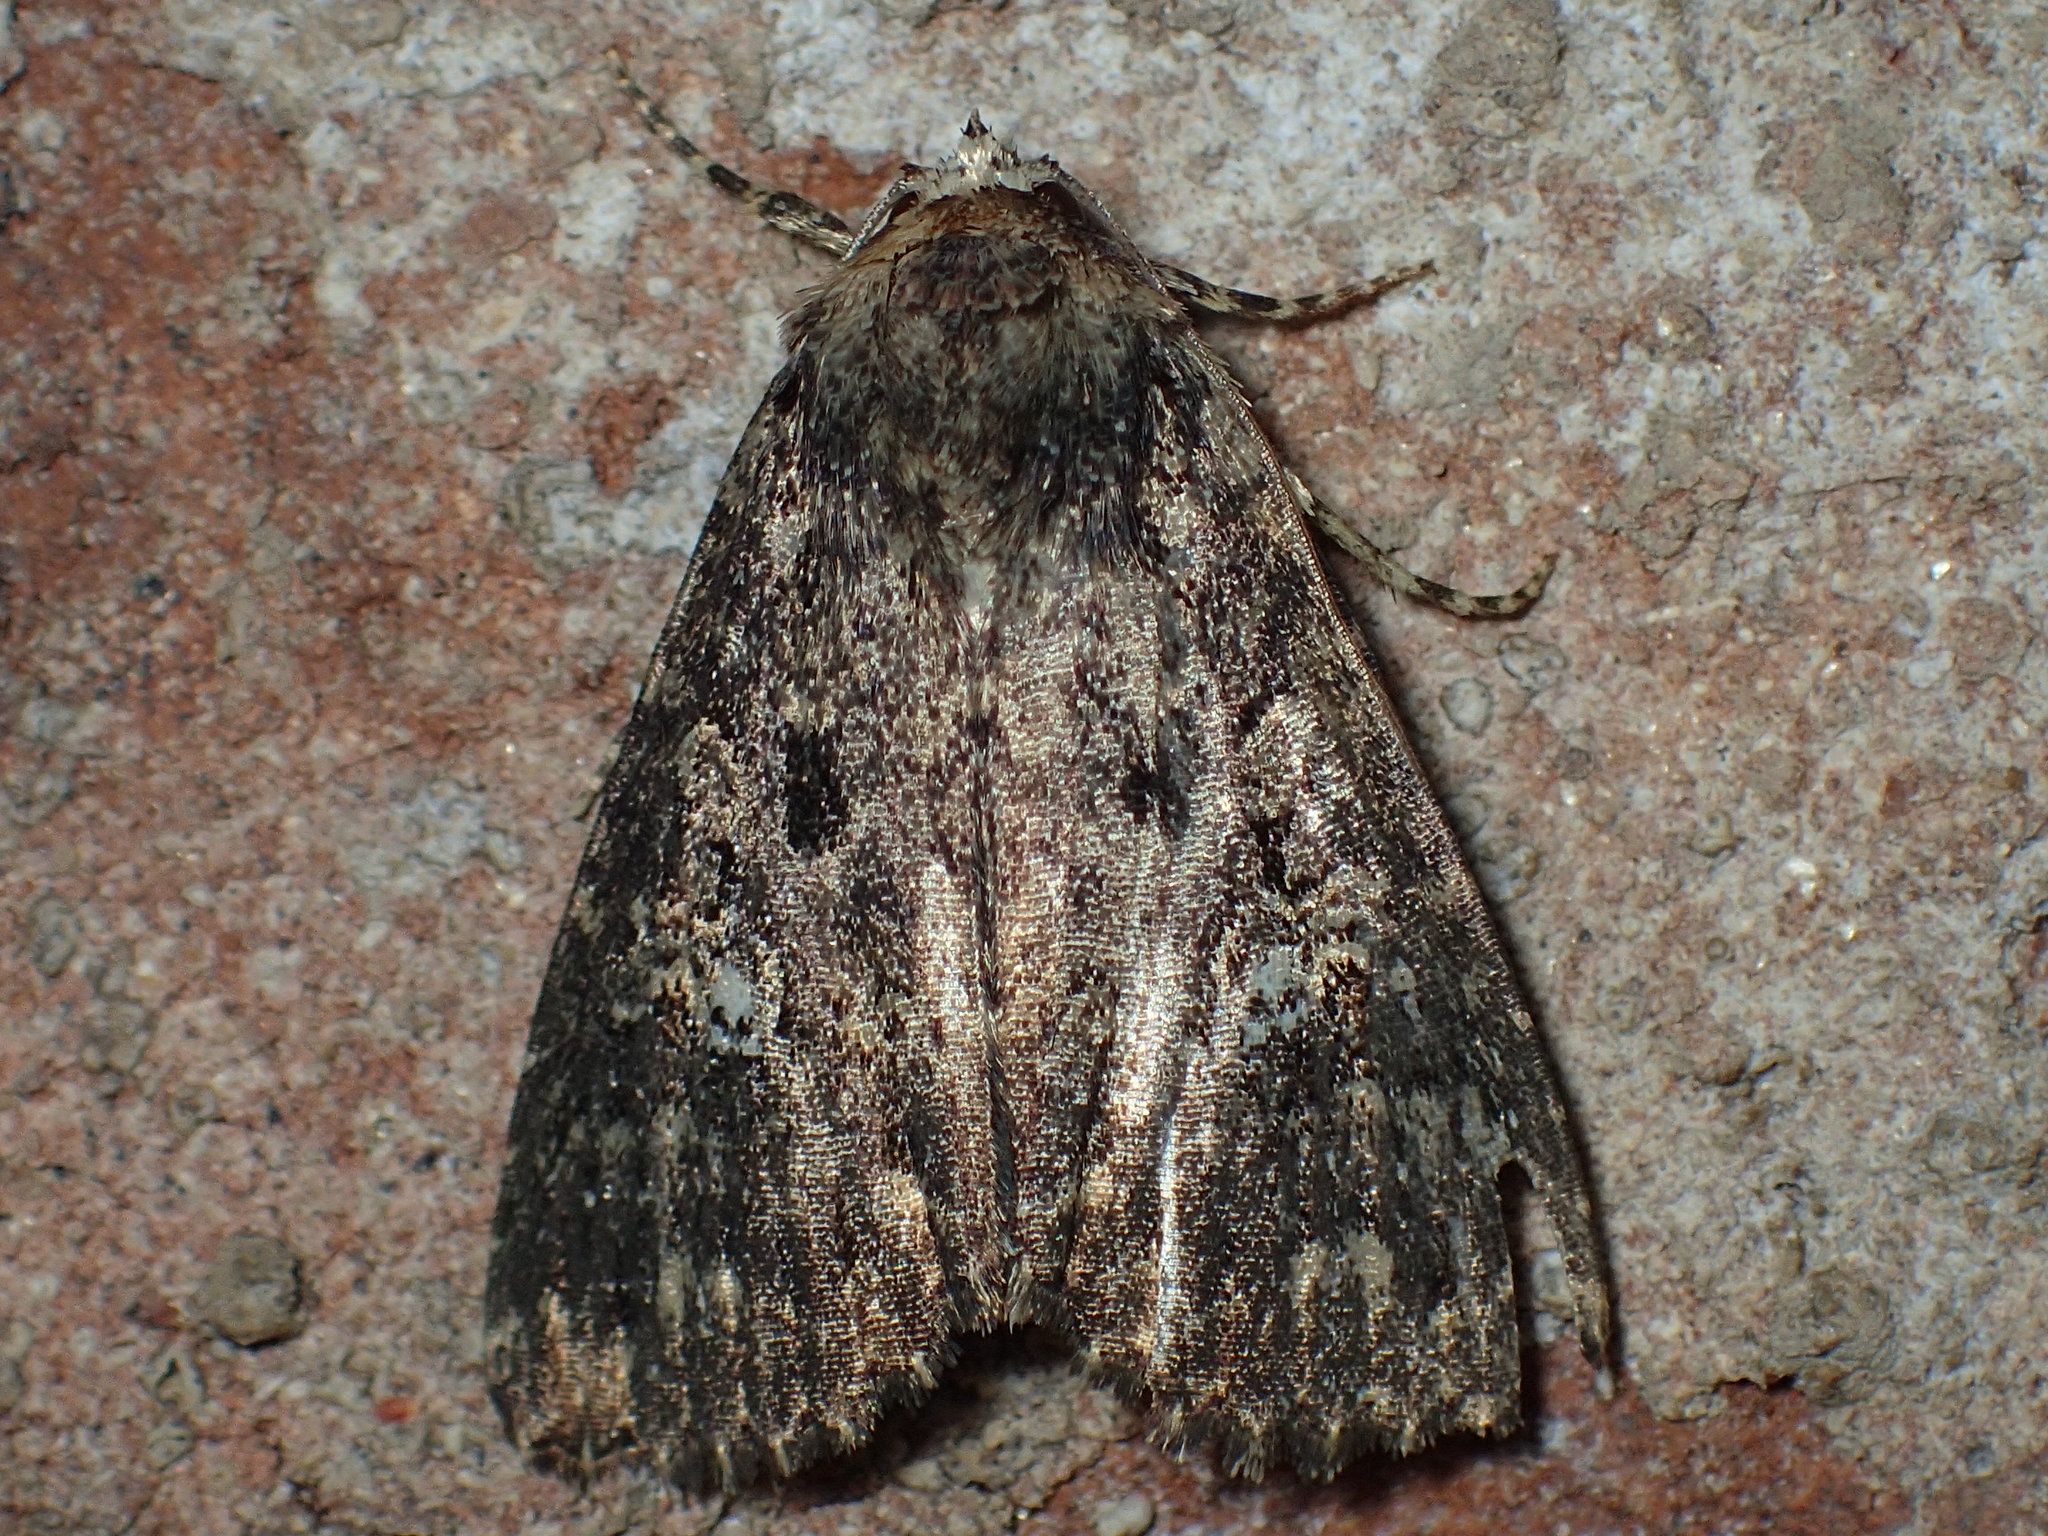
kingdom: Animalia
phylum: Arthropoda
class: Insecta
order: Lepidoptera
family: Noctuidae
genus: Condica
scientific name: Condica vecors
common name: Dusky groundling
